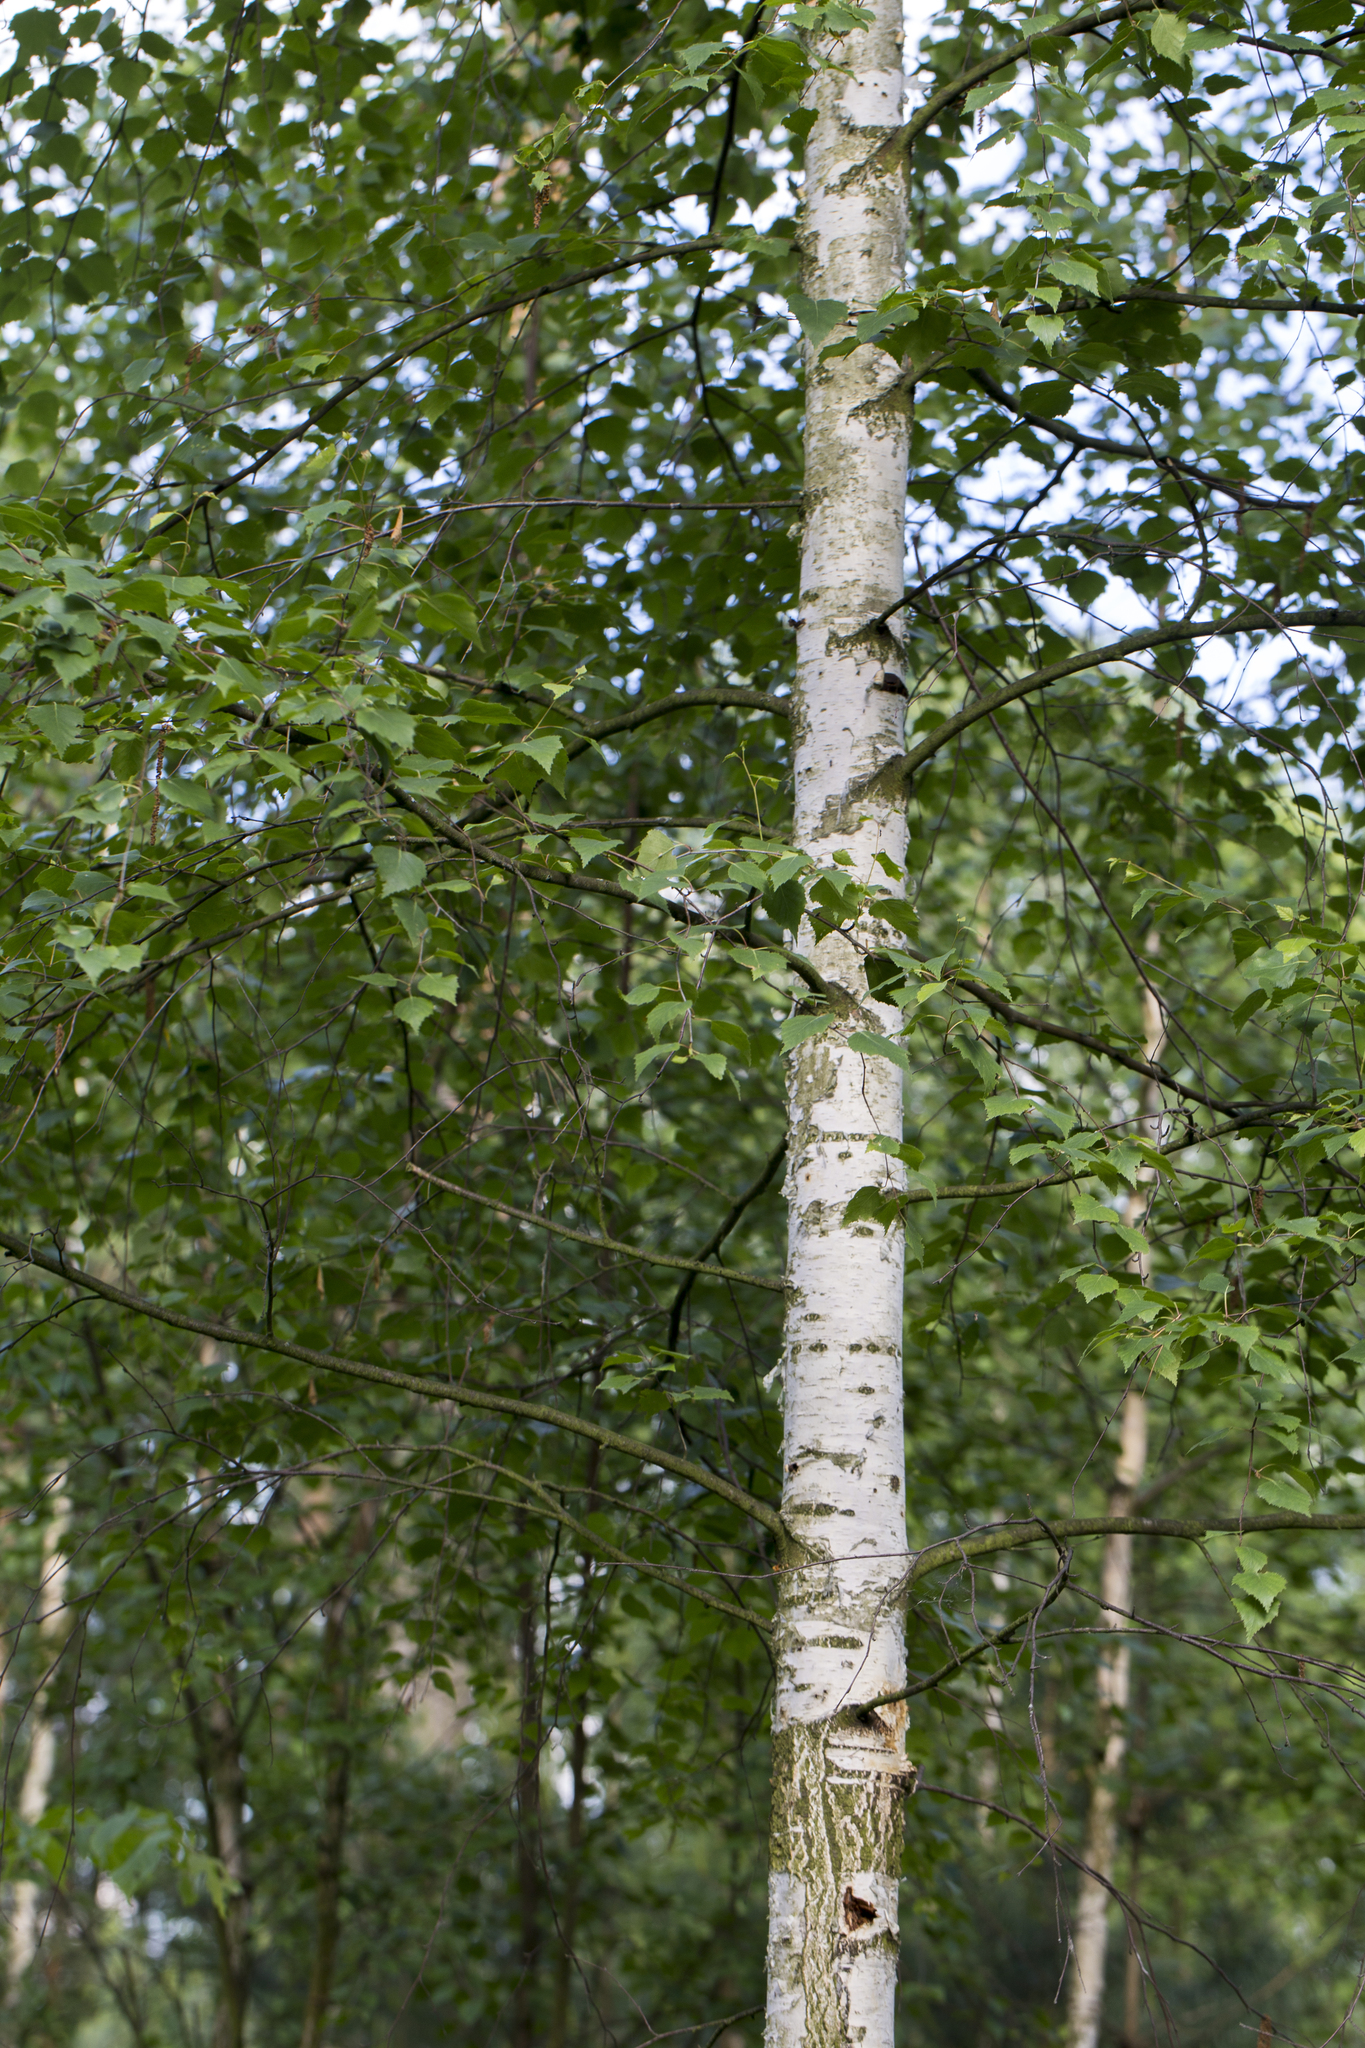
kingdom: Plantae
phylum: Tracheophyta
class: Magnoliopsida
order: Fagales
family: Betulaceae
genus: Betula
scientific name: Betula pendula
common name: Silver birch
